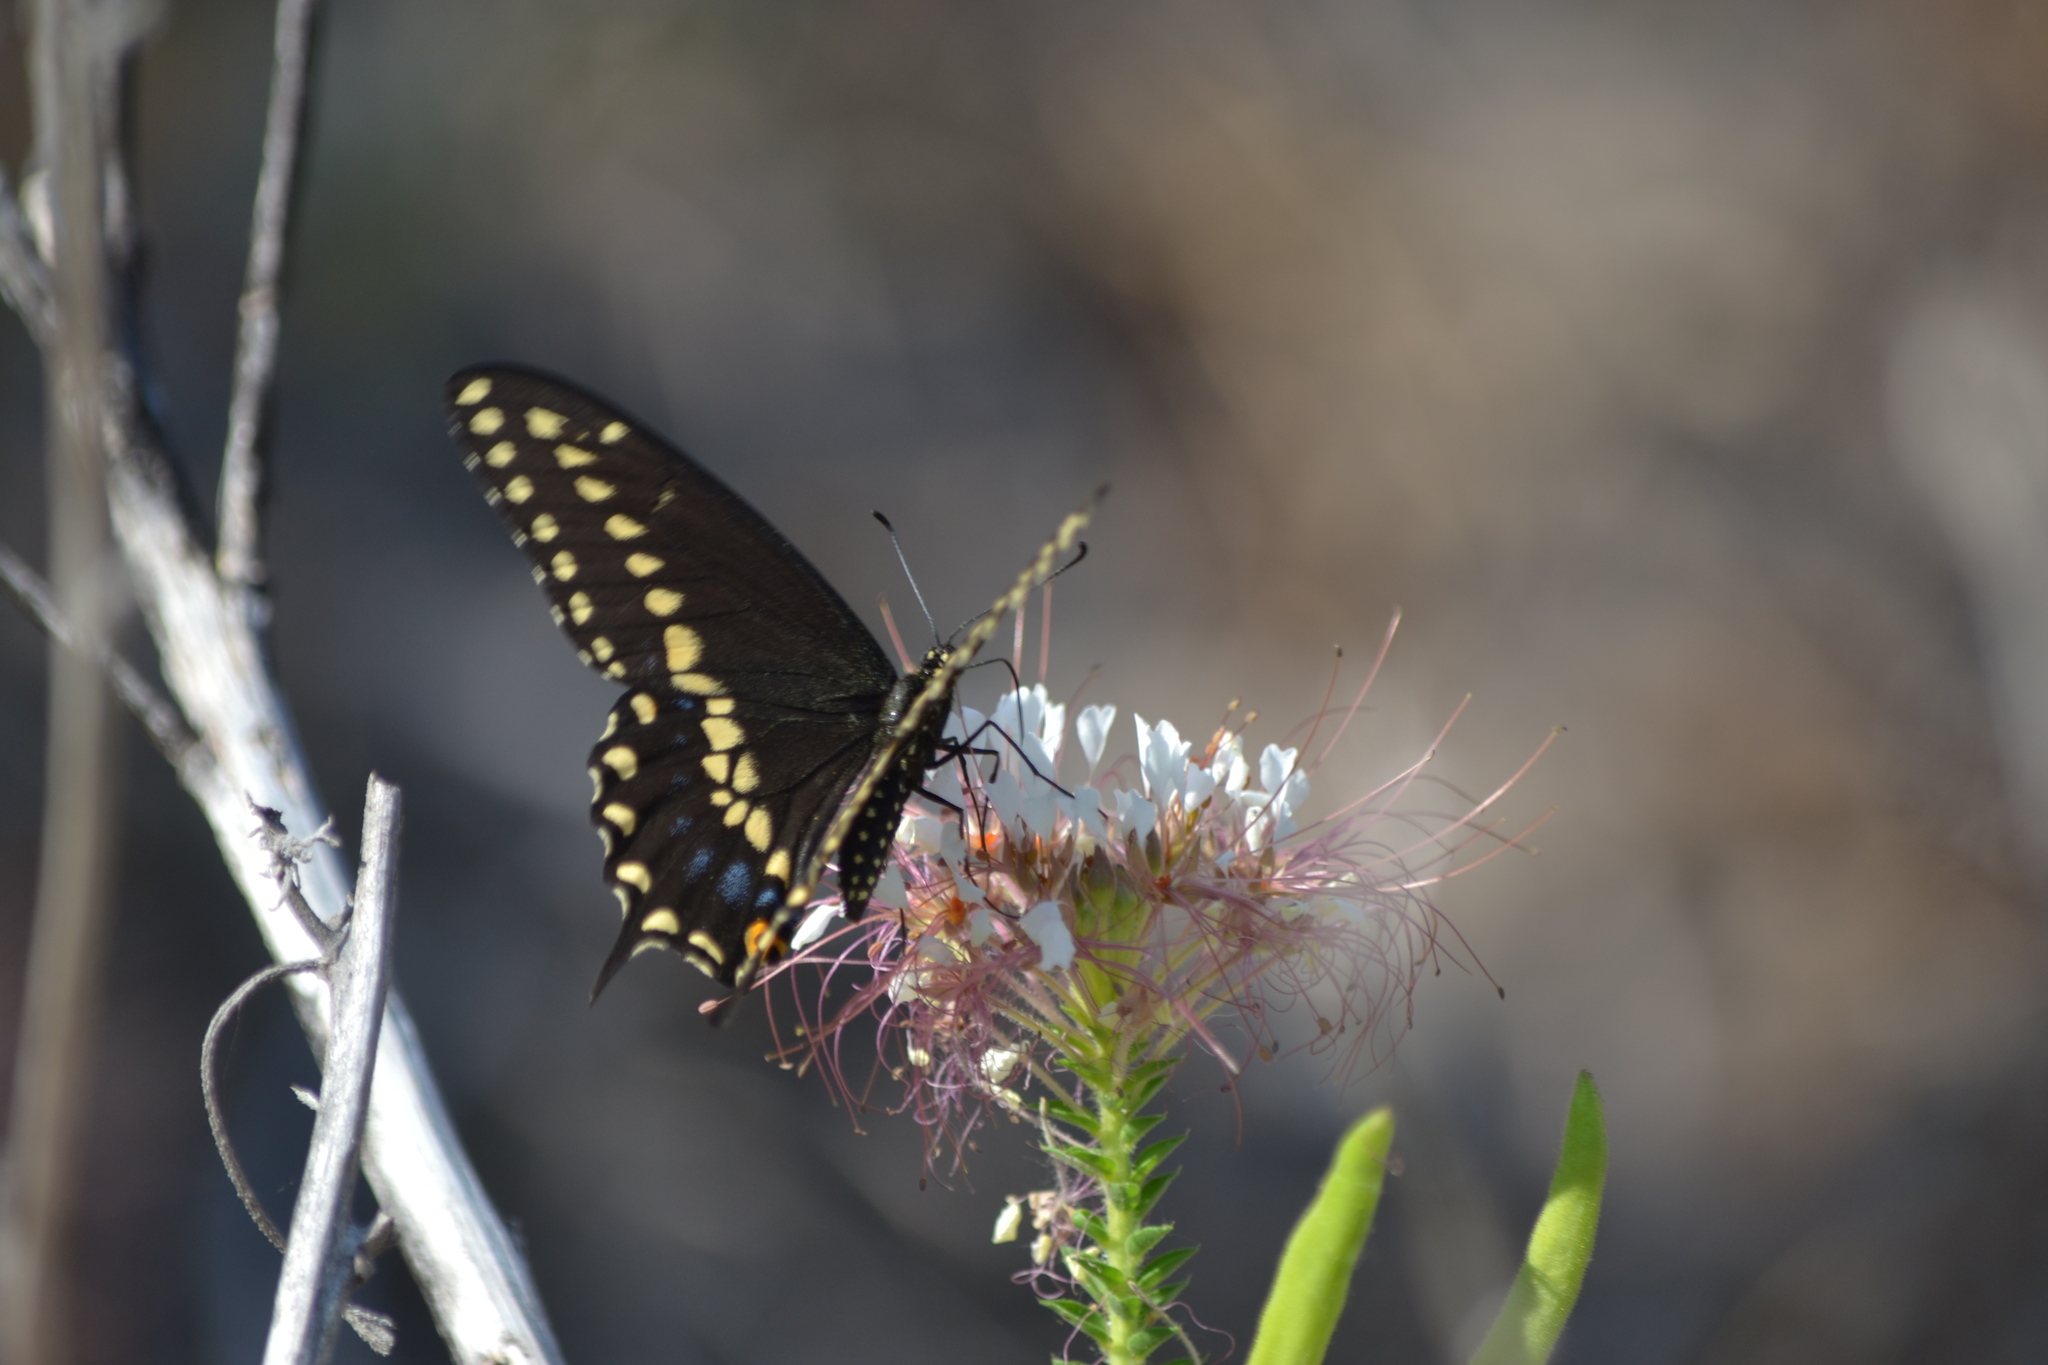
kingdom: Animalia
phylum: Arthropoda
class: Insecta
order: Lepidoptera
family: Papilionidae
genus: Papilio
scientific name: Papilio polyxenes
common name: Black swallowtail
